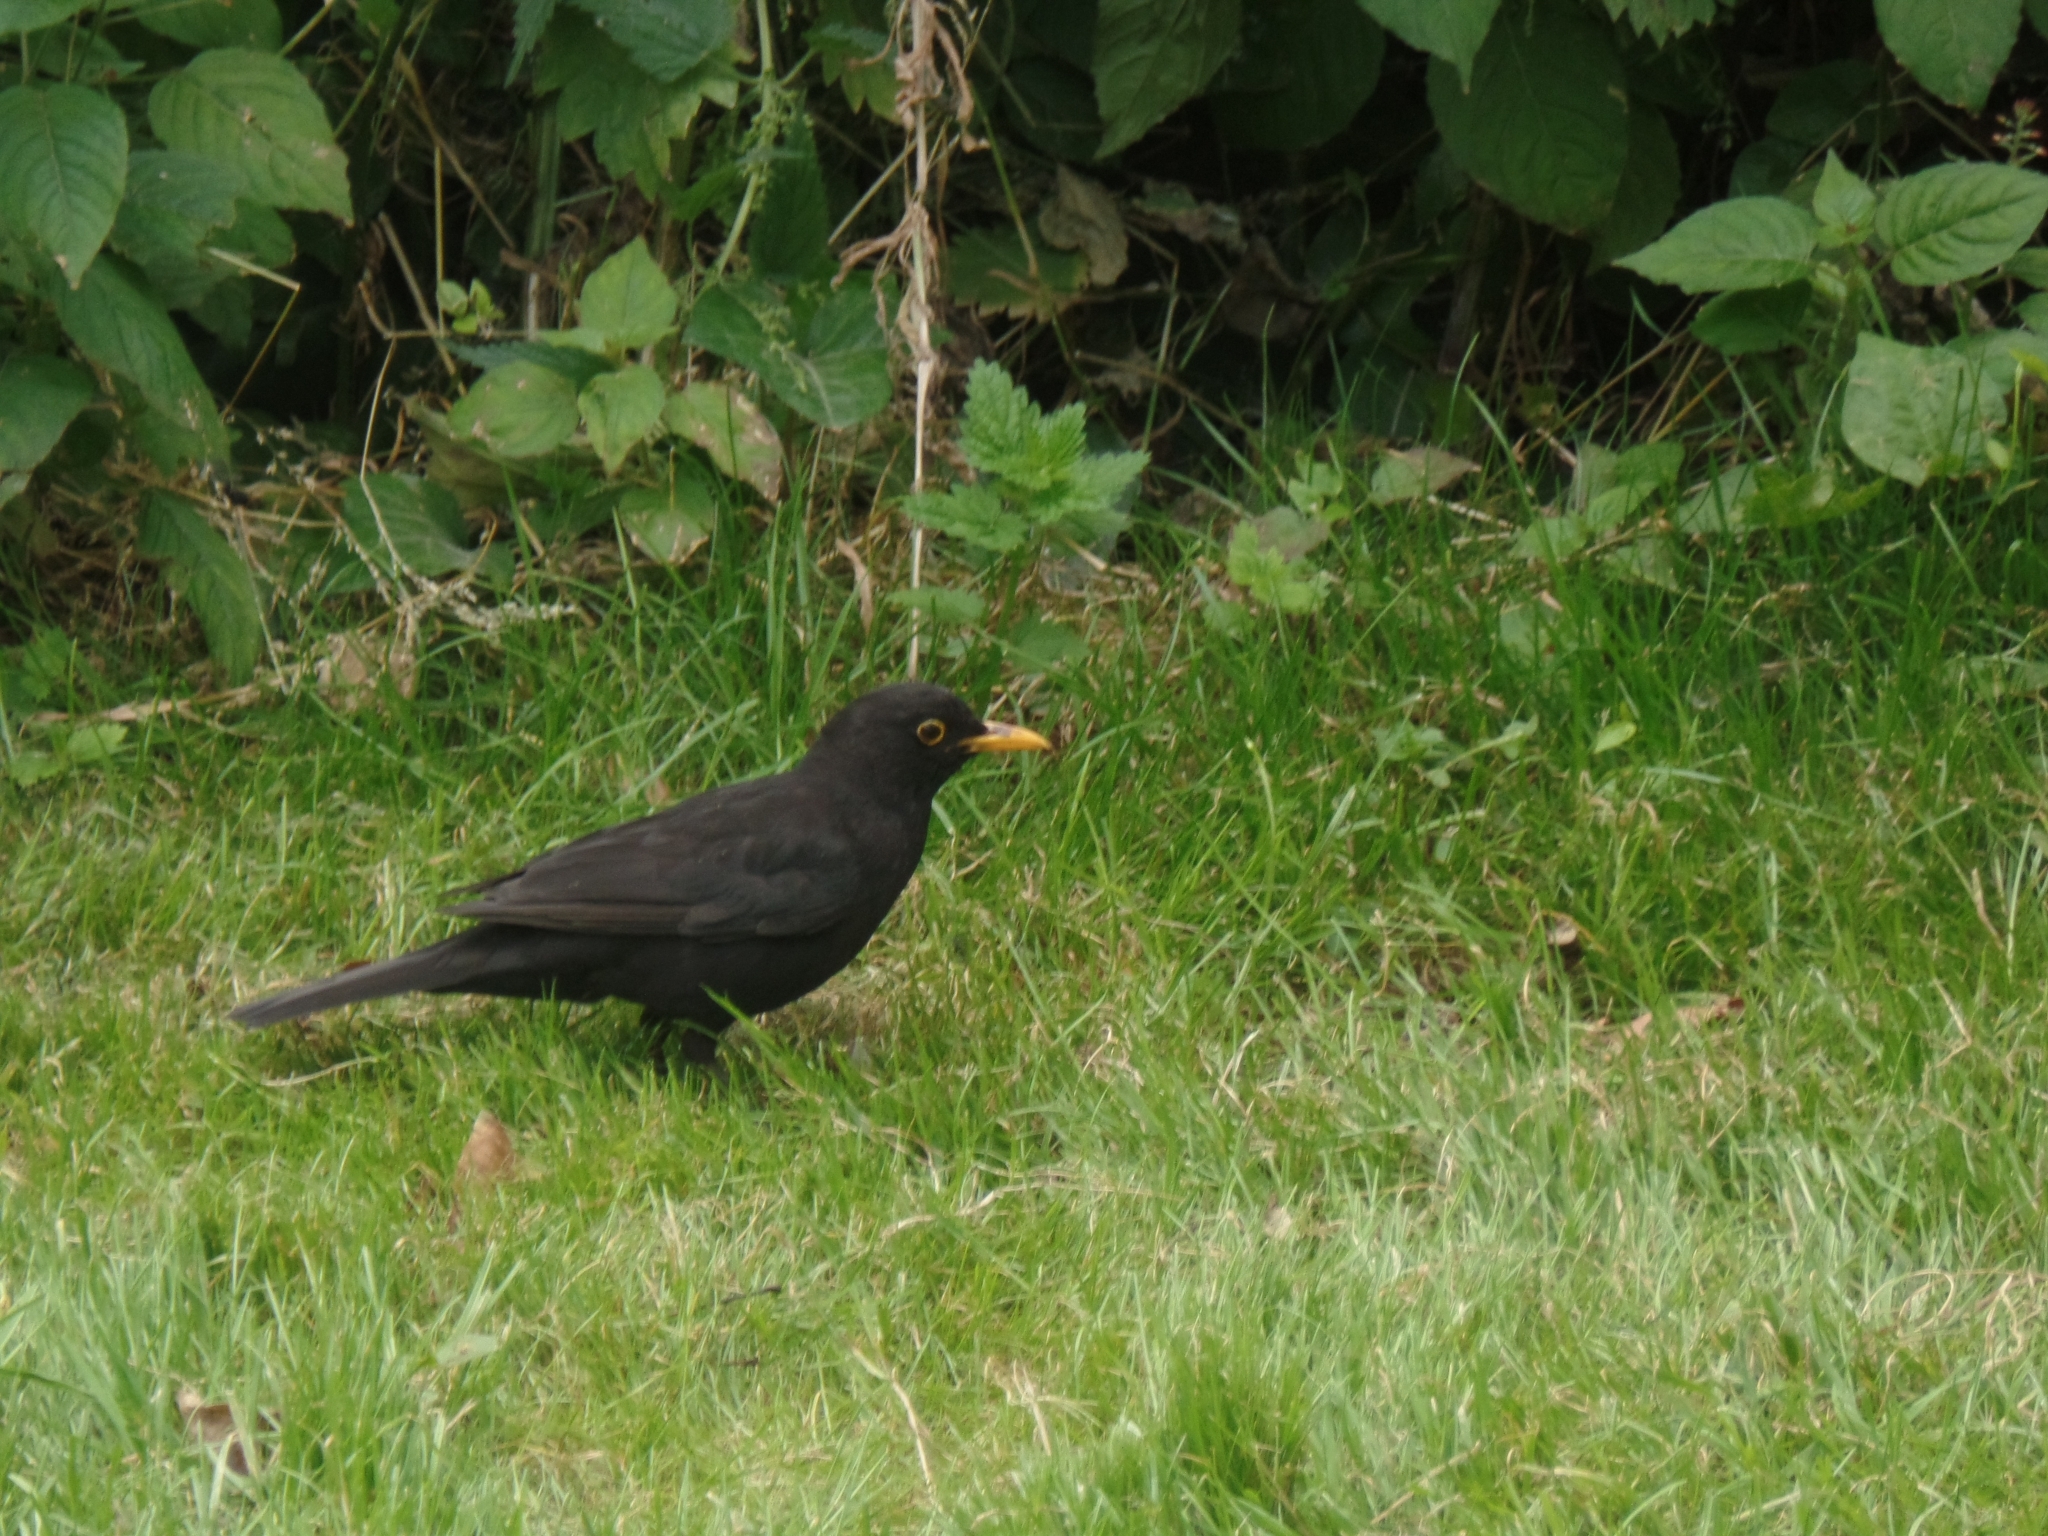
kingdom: Animalia
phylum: Chordata
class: Aves
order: Passeriformes
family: Turdidae
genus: Turdus
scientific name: Turdus merula
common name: Common blackbird
